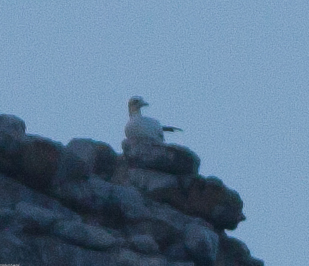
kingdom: Animalia
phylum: Chordata
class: Aves
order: Suliformes
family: Sulidae
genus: Morus
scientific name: Morus bassanus
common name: Northern gannet
